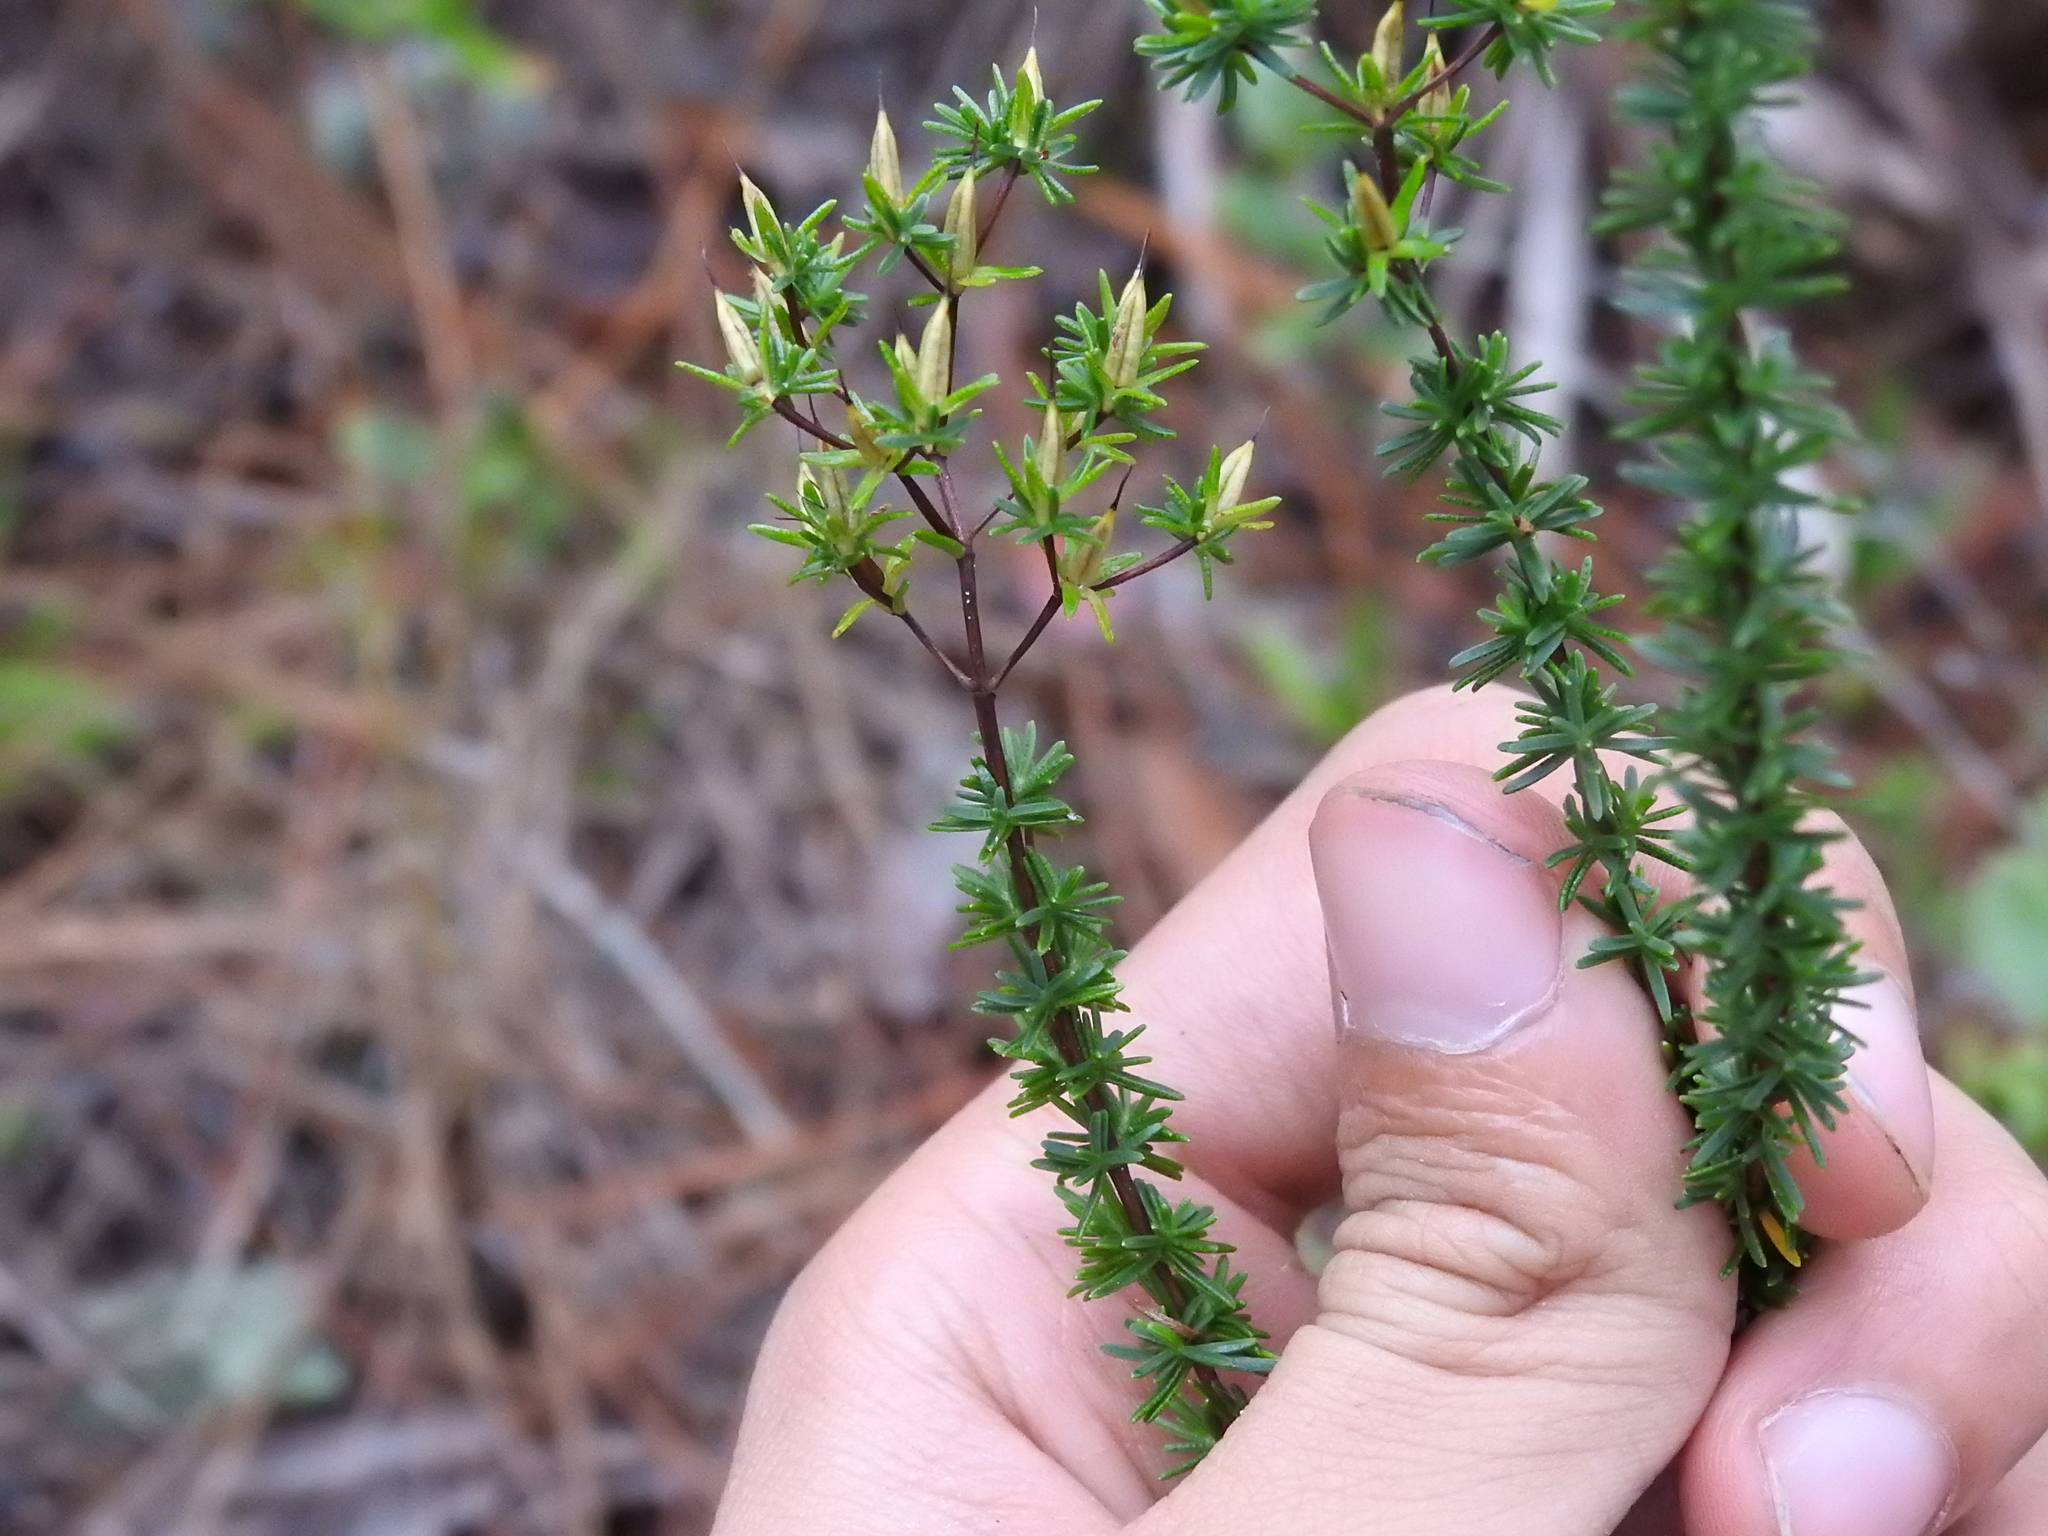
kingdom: Plantae
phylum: Tracheophyta
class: Magnoliopsida
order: Malpighiales
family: Hypericaceae
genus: Hypericum
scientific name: Hypericum tenuifolium
